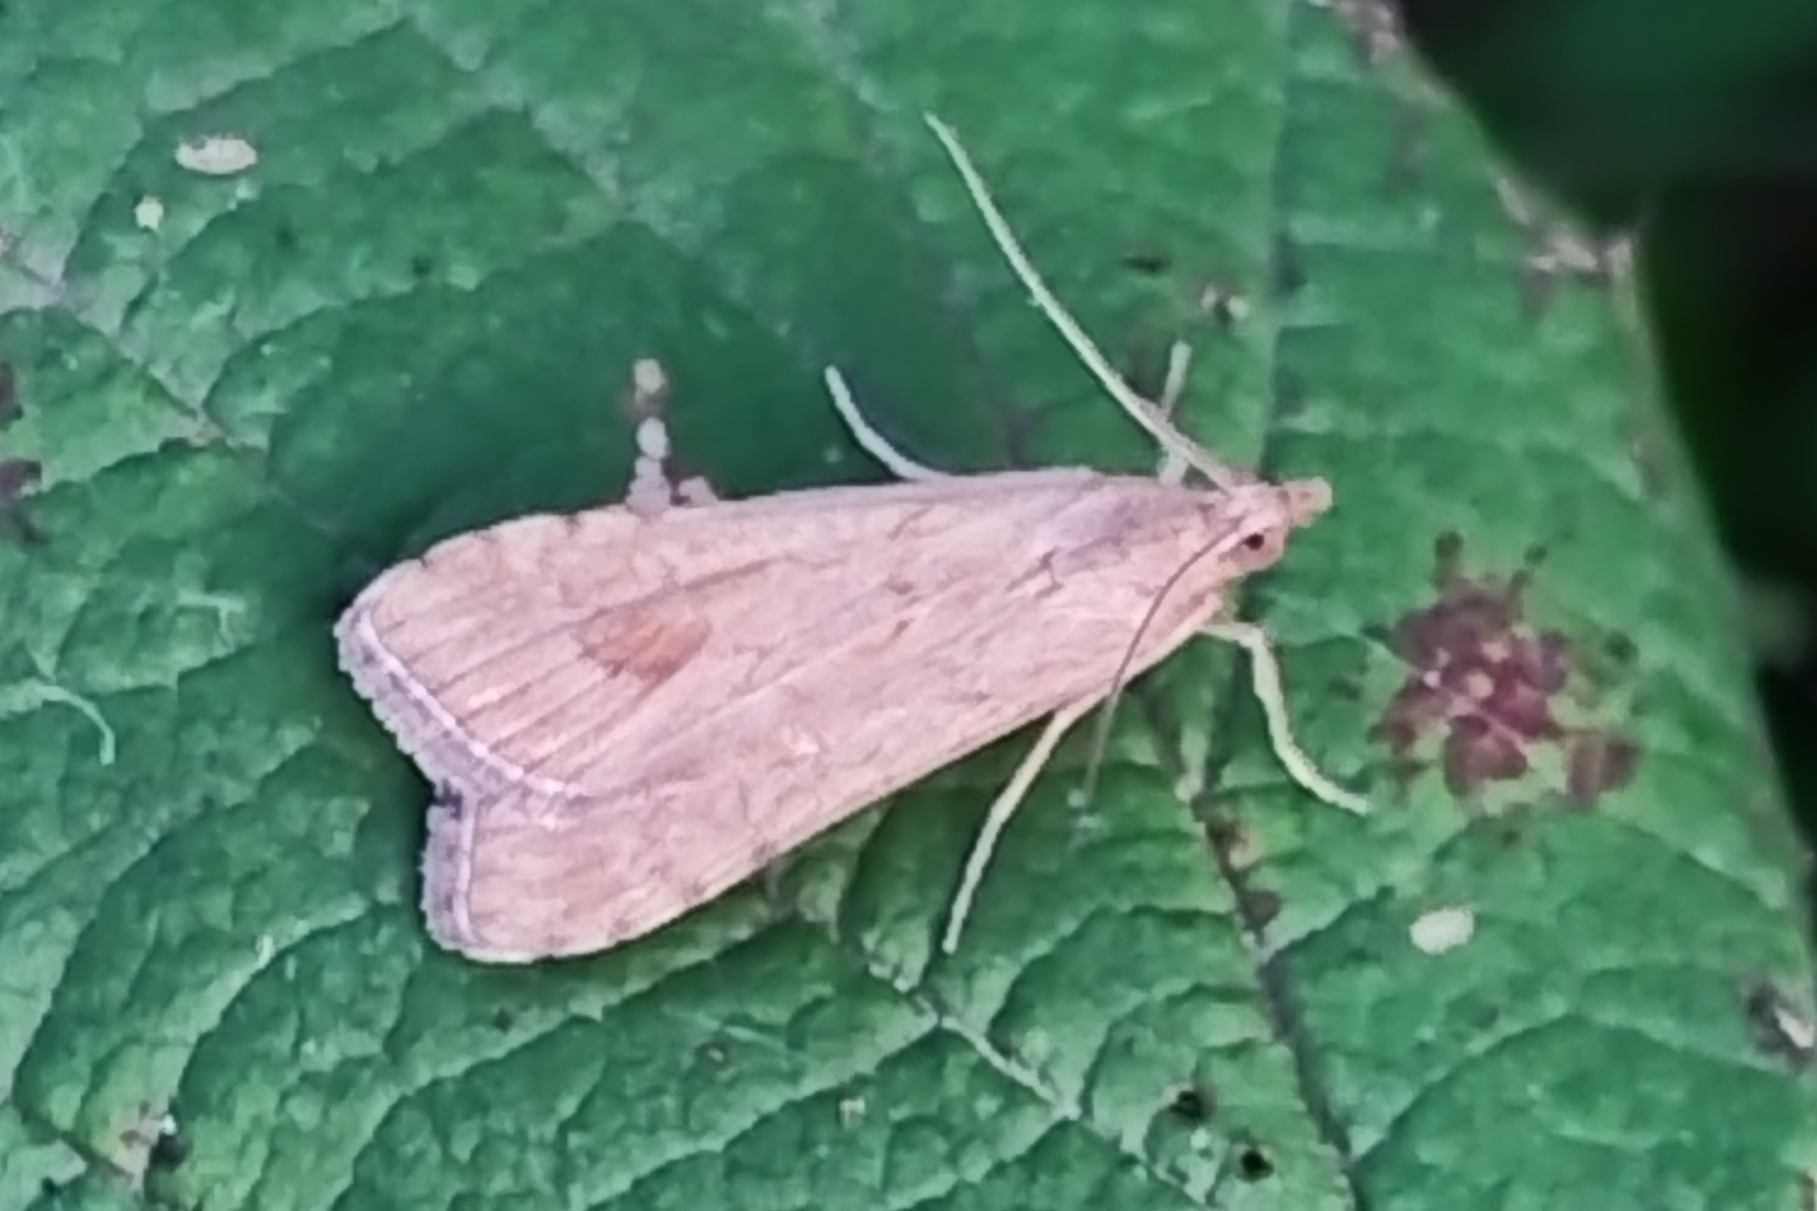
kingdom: Animalia
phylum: Arthropoda
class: Insecta
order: Lepidoptera
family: Crambidae
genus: Nomophila
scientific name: Nomophila noctuella
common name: Rush veneer
